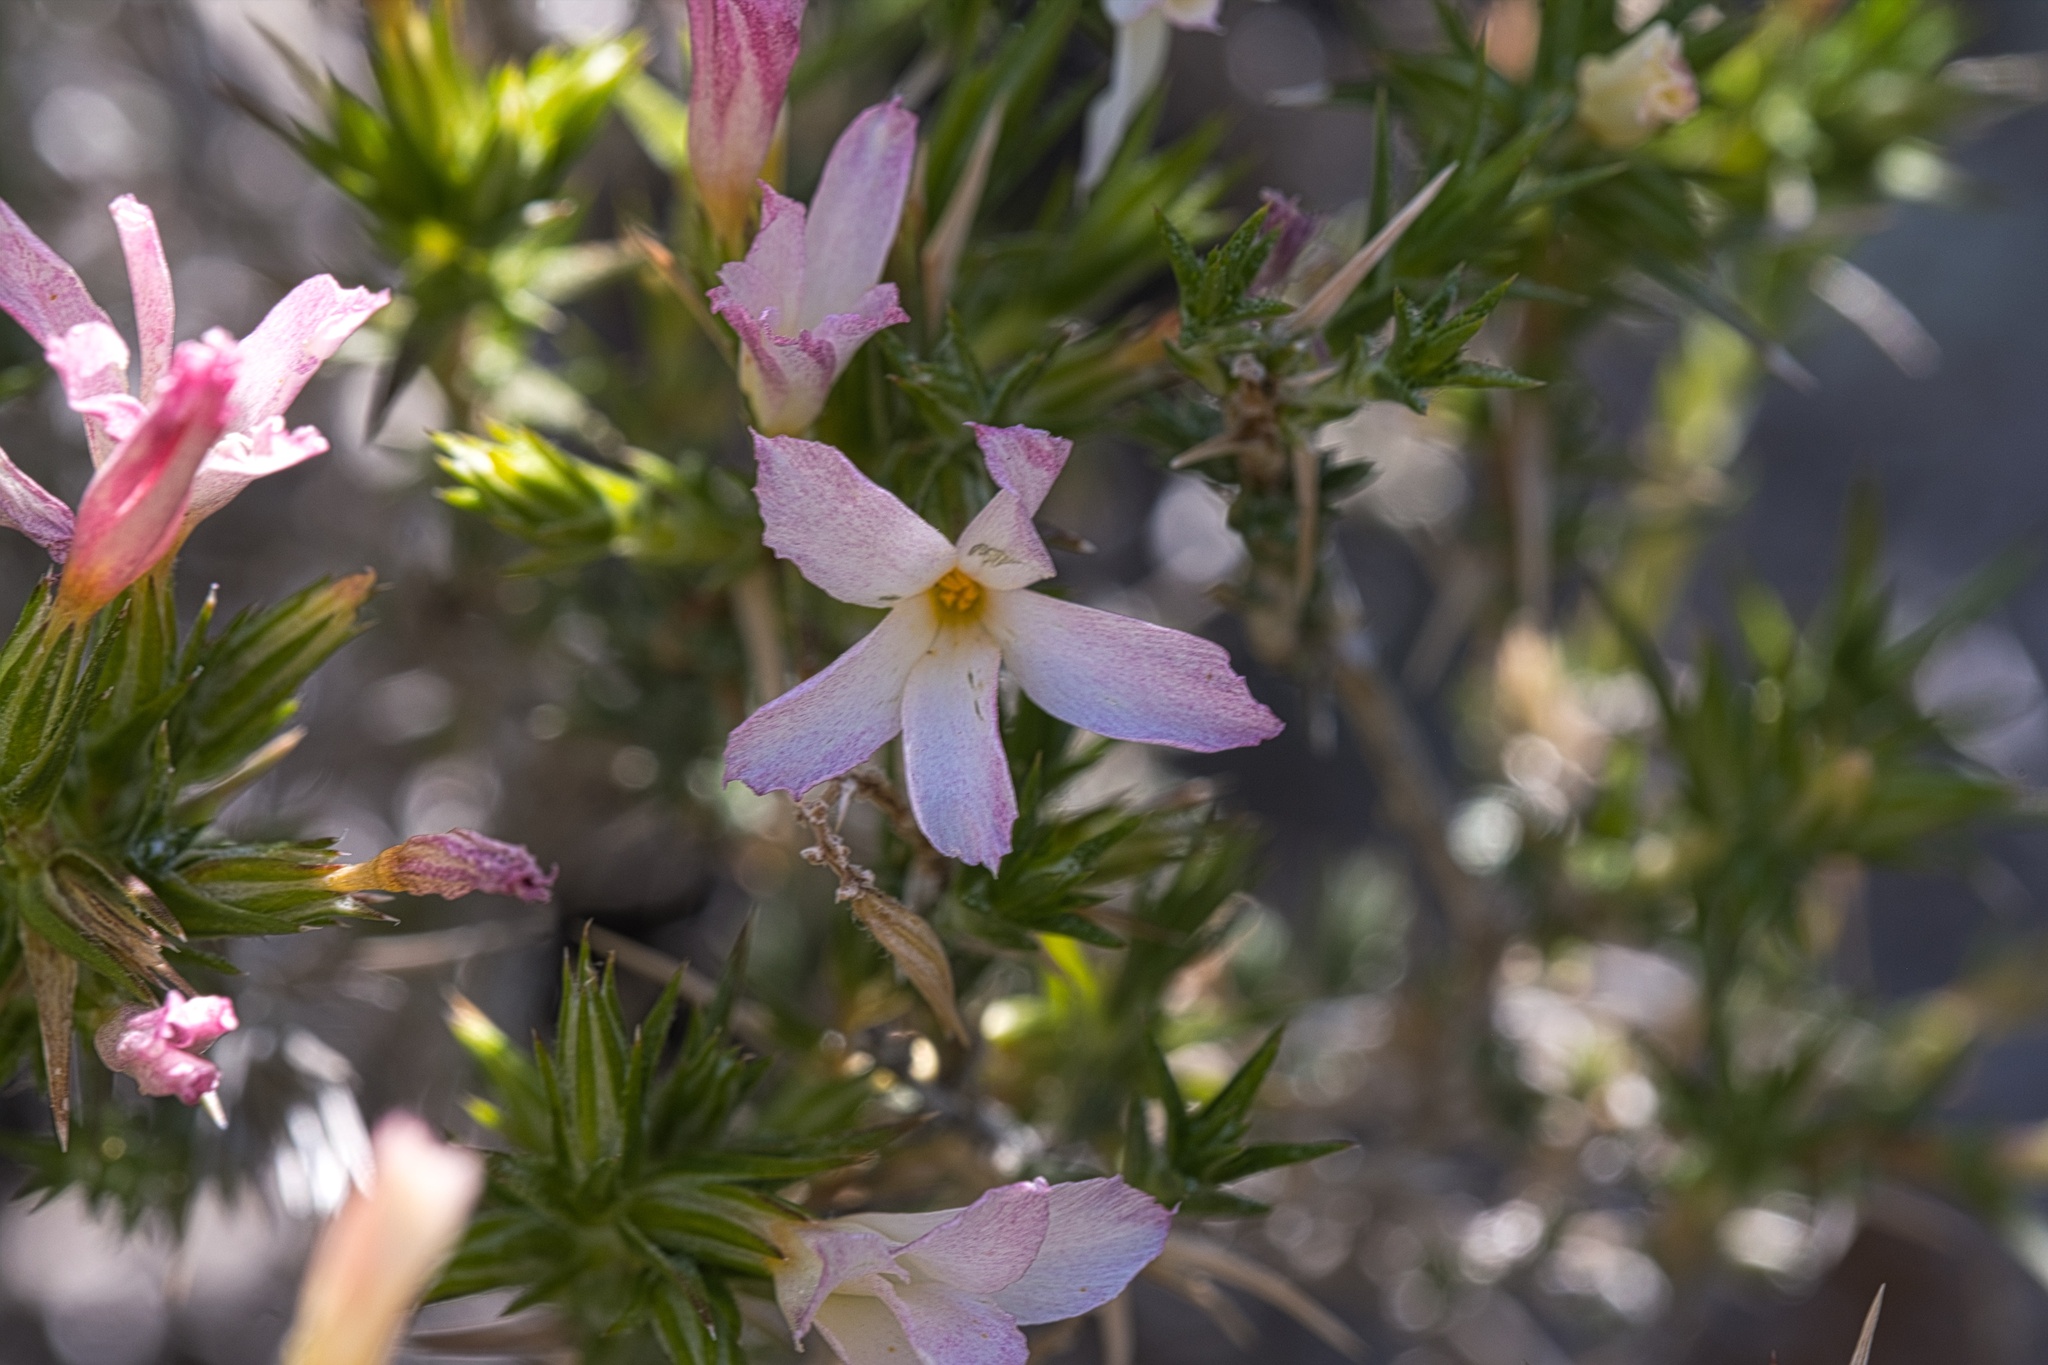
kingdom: Plantae
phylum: Tracheophyta
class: Magnoliopsida
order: Ericales
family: Polemoniaceae
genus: Linanthus
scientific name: Linanthus pungens
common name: Granite prickly phlox
